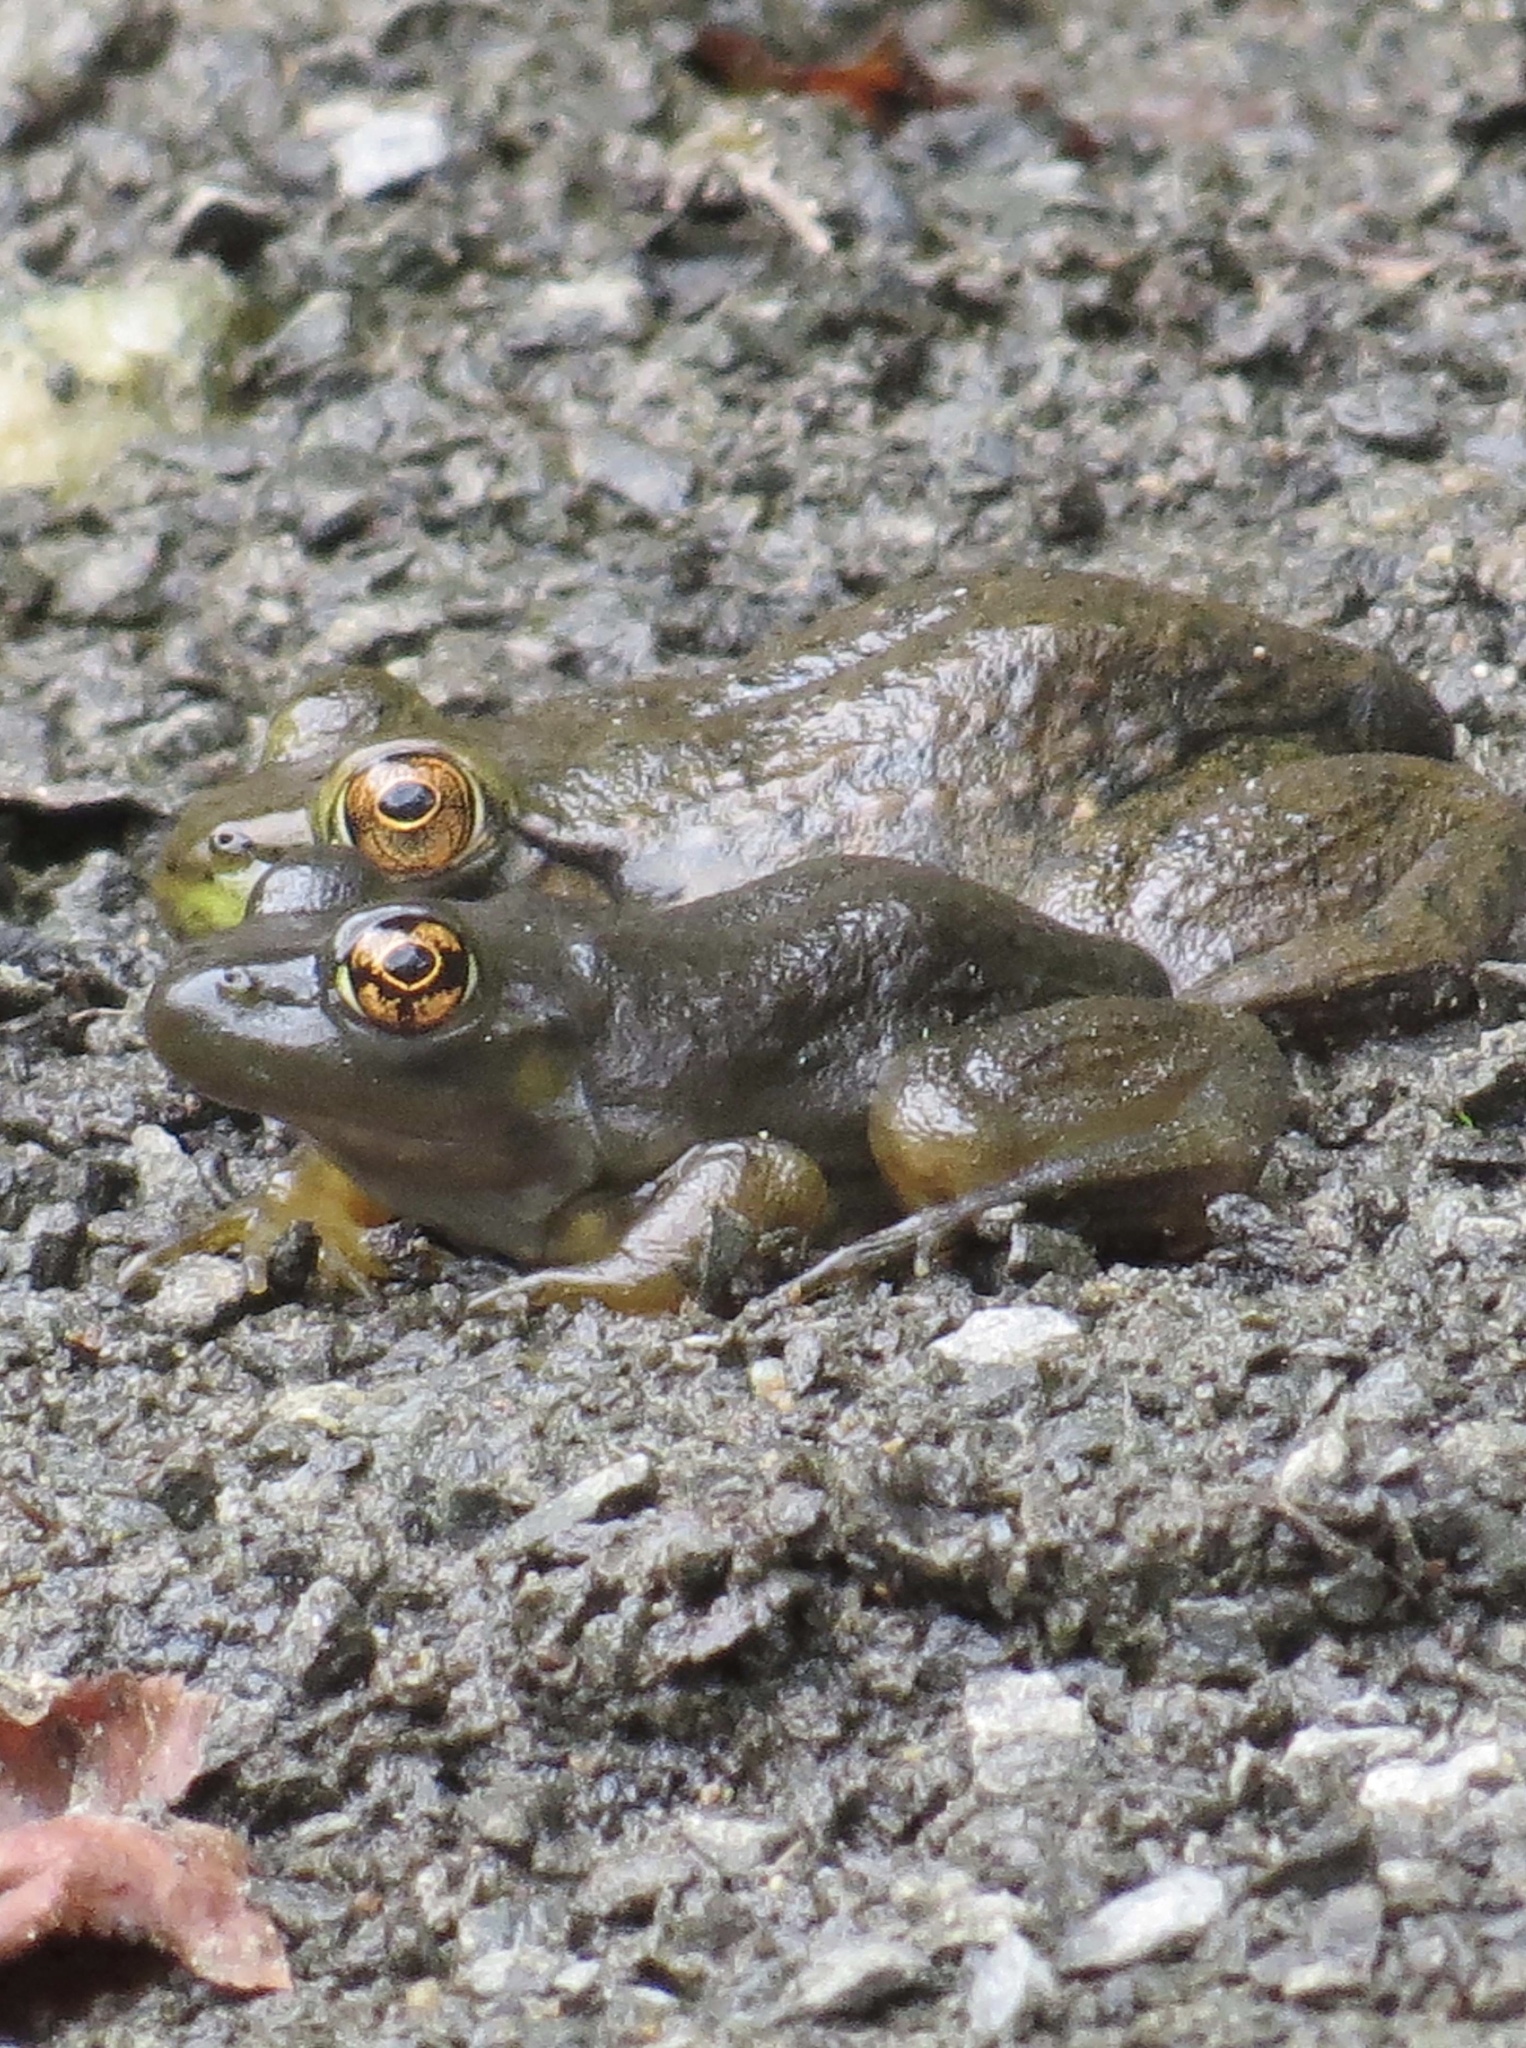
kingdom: Animalia
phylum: Chordata
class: Amphibia
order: Anura
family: Ranidae
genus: Lithobates
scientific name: Lithobates catesbeianus
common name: American bullfrog
